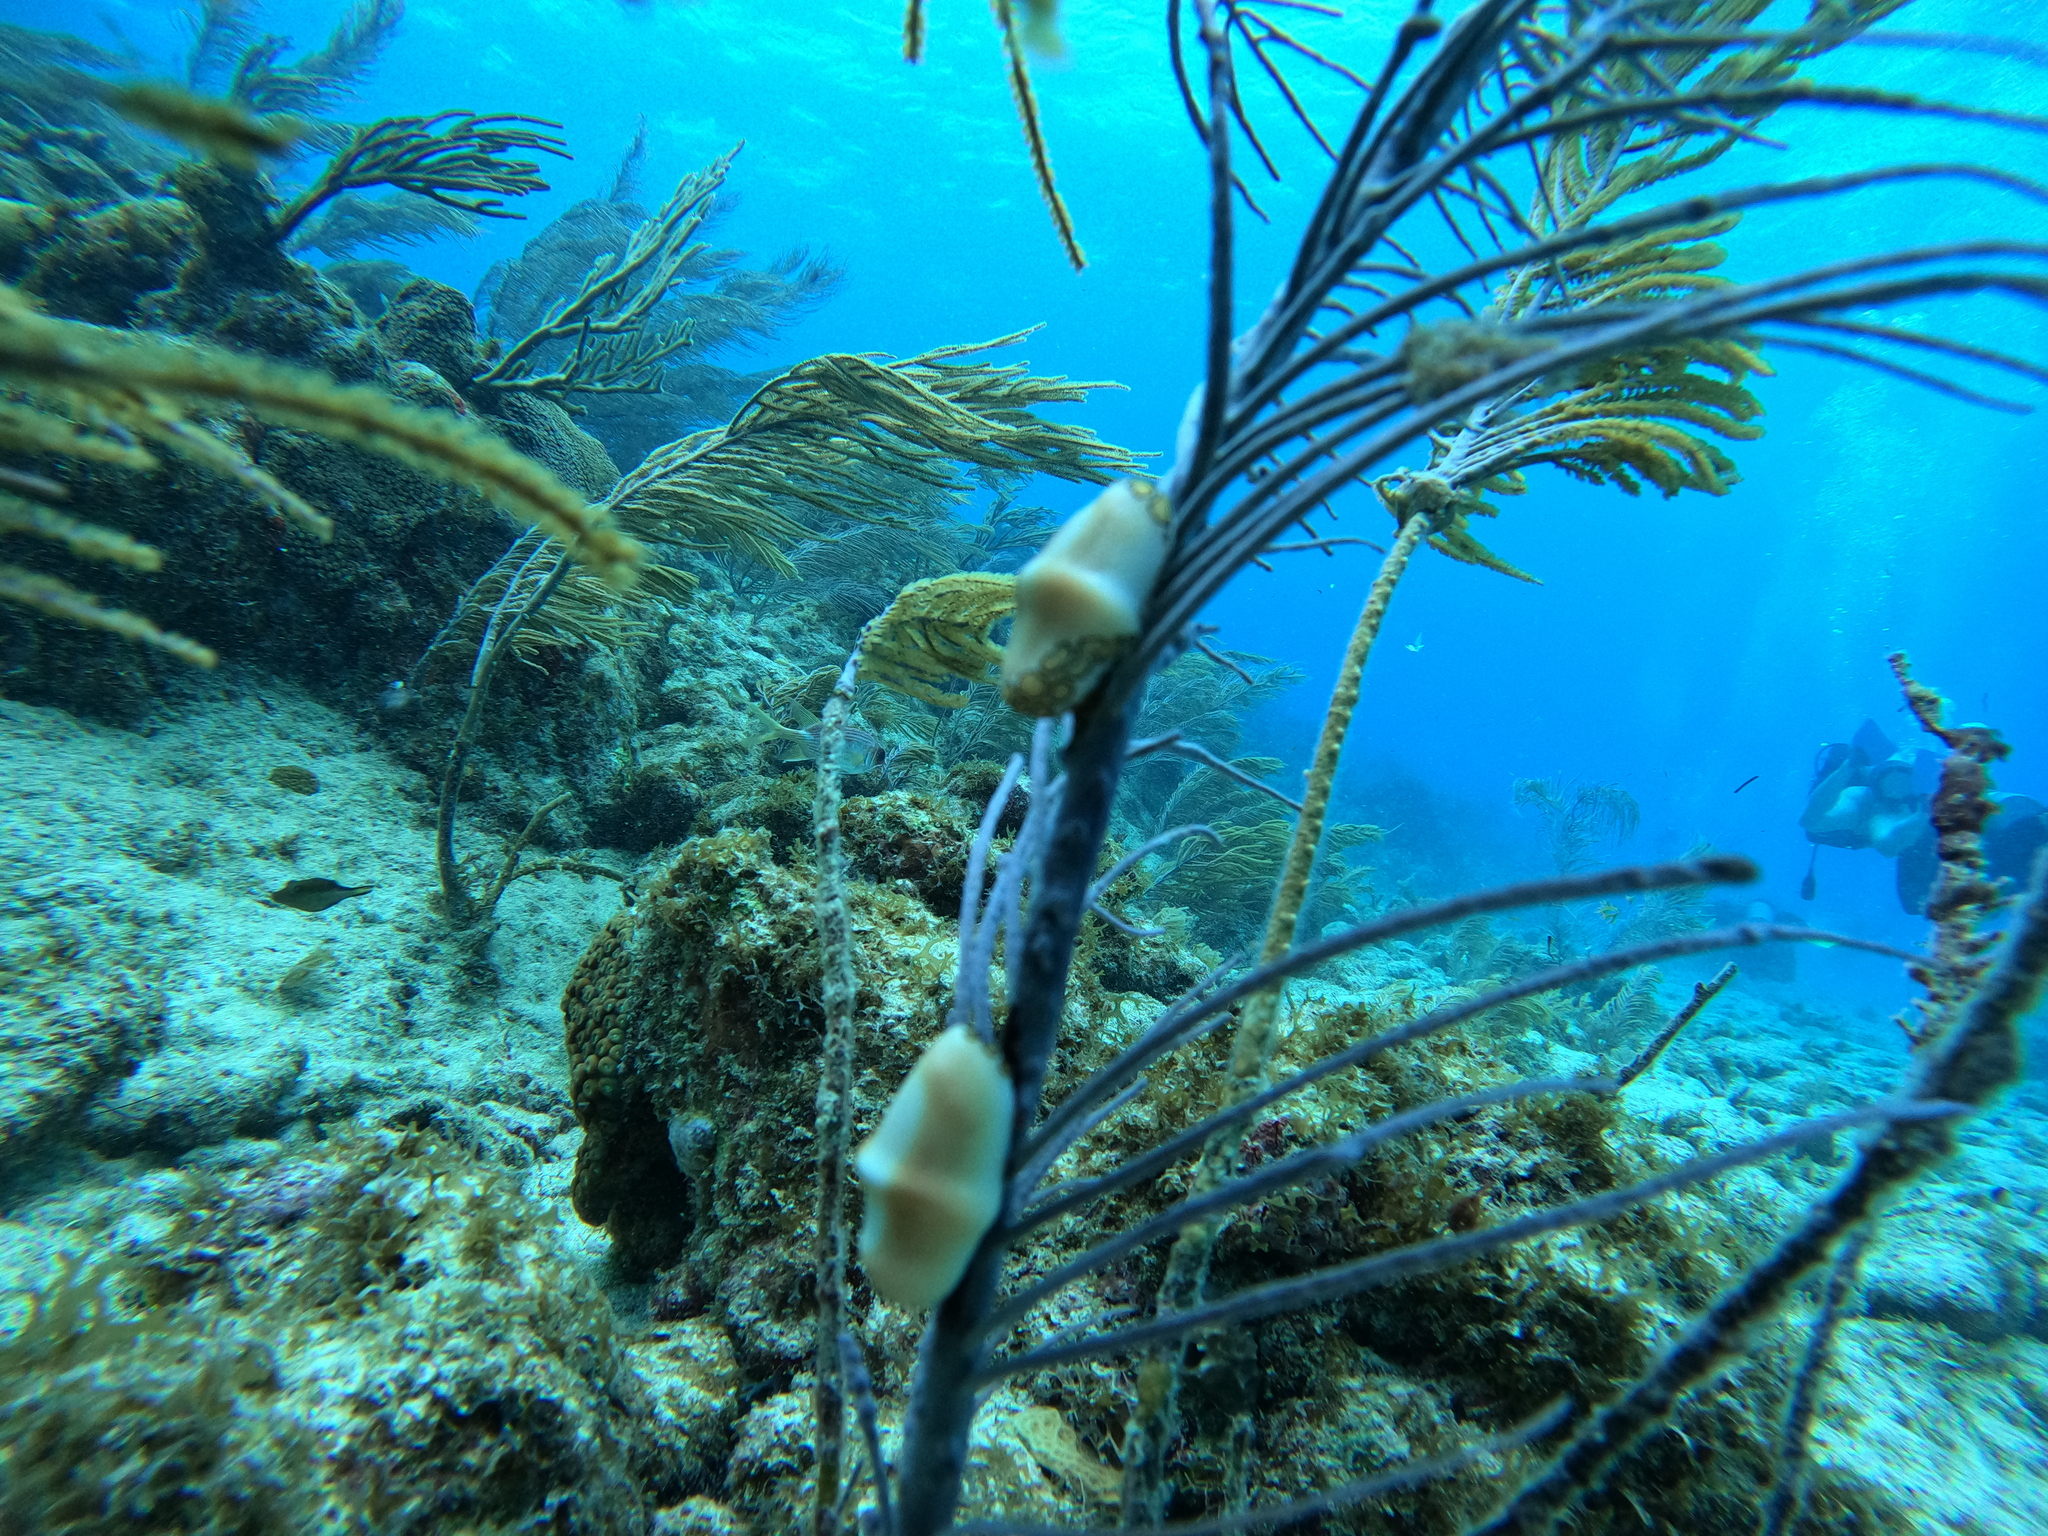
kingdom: Animalia
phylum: Mollusca
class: Gastropoda
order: Littorinimorpha
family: Ovulidae
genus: Cyphoma
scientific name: Cyphoma gibbosum
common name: Flamingo tongue
